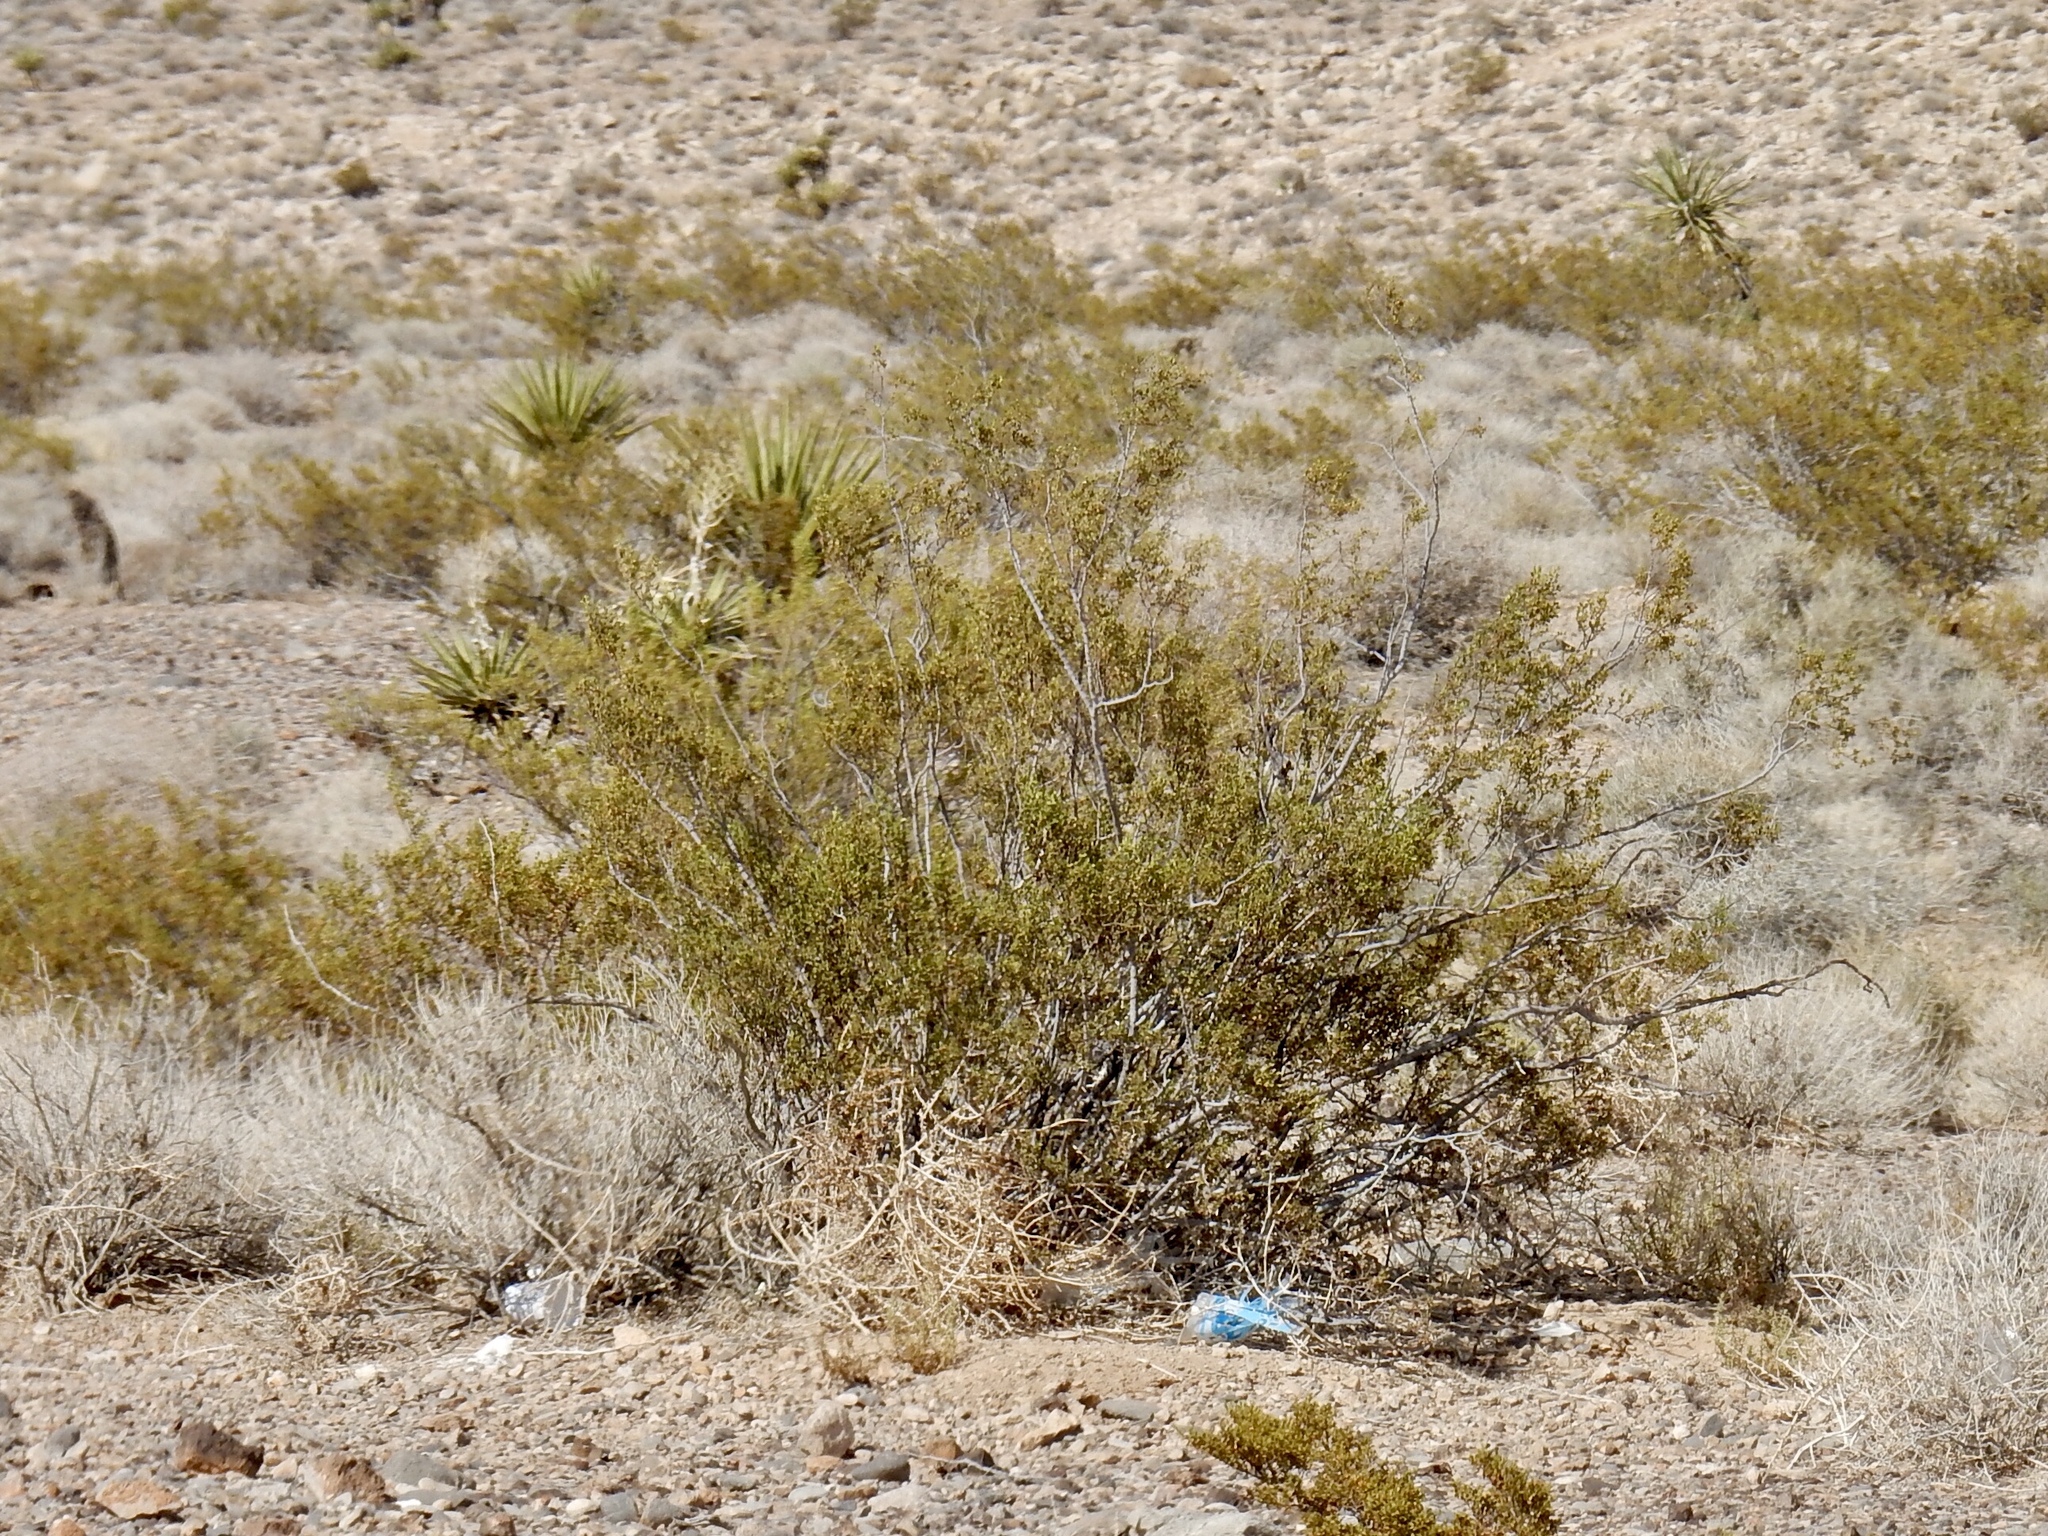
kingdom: Plantae
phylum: Tracheophyta
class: Magnoliopsida
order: Zygophyllales
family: Zygophyllaceae
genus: Larrea
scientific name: Larrea tridentata
